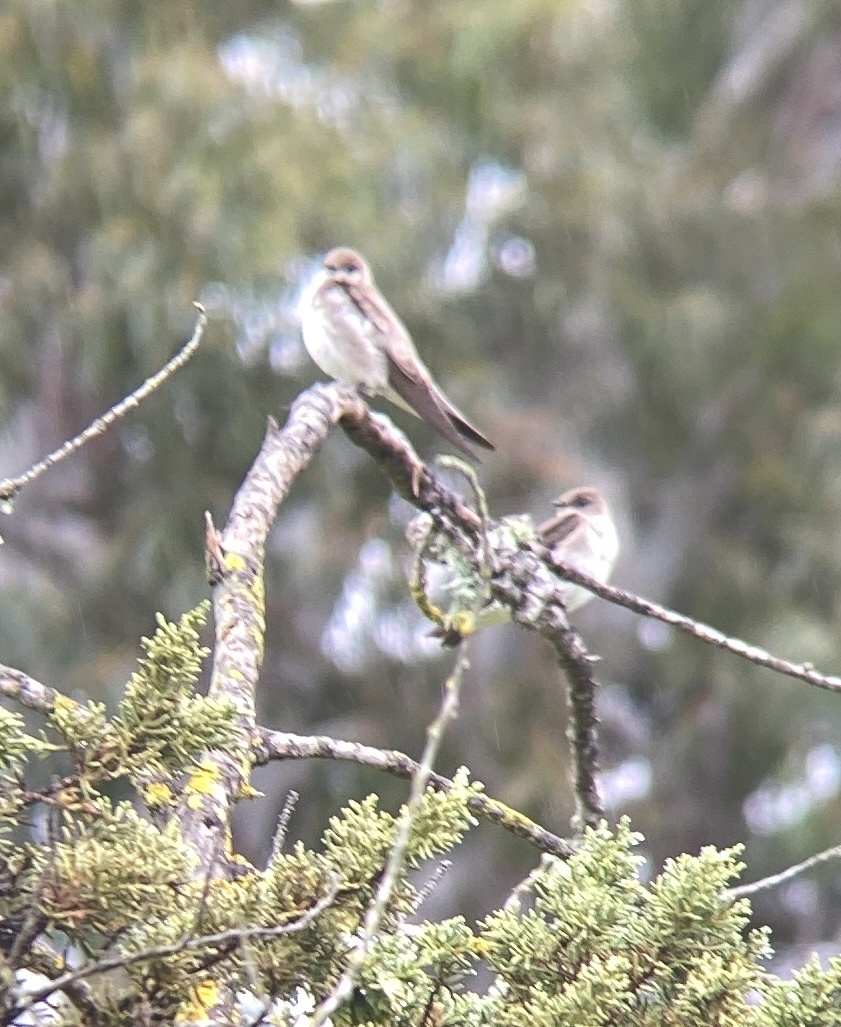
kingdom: Animalia
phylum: Chordata
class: Aves
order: Passeriformes
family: Hirundinidae
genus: Stelgidopteryx
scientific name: Stelgidopteryx serripennis
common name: Northern rough-winged swallow
